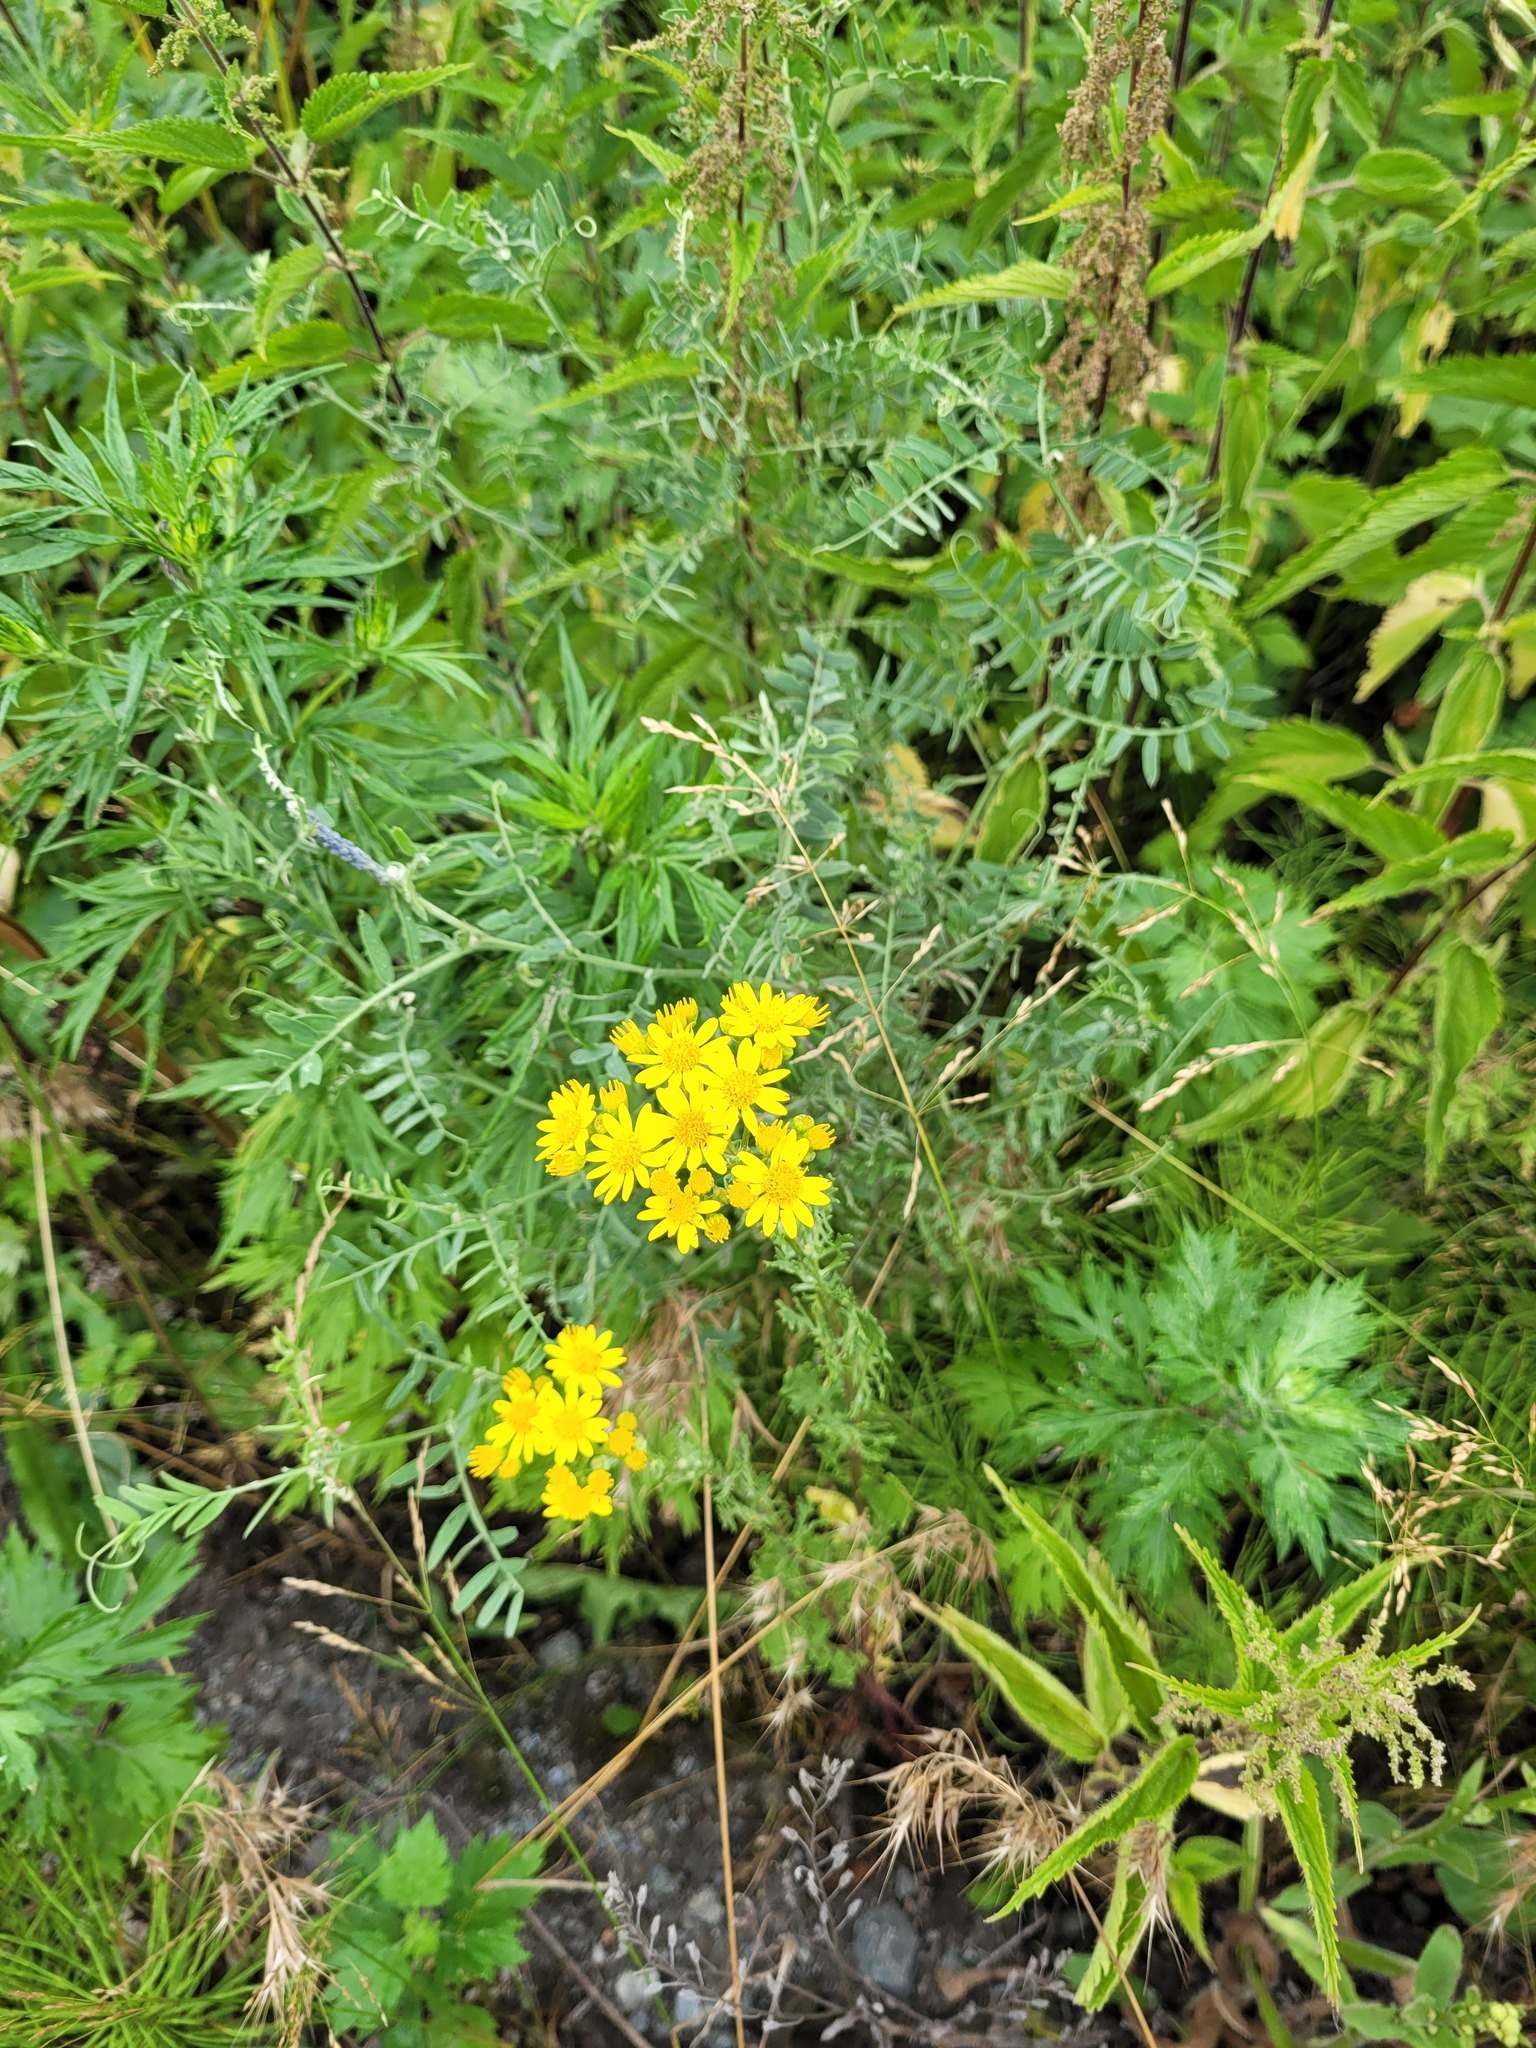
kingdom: Plantae
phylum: Tracheophyta
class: Magnoliopsida
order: Asterales
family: Asteraceae
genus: Jacobaea
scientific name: Jacobaea vulgaris
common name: Stinking willie
